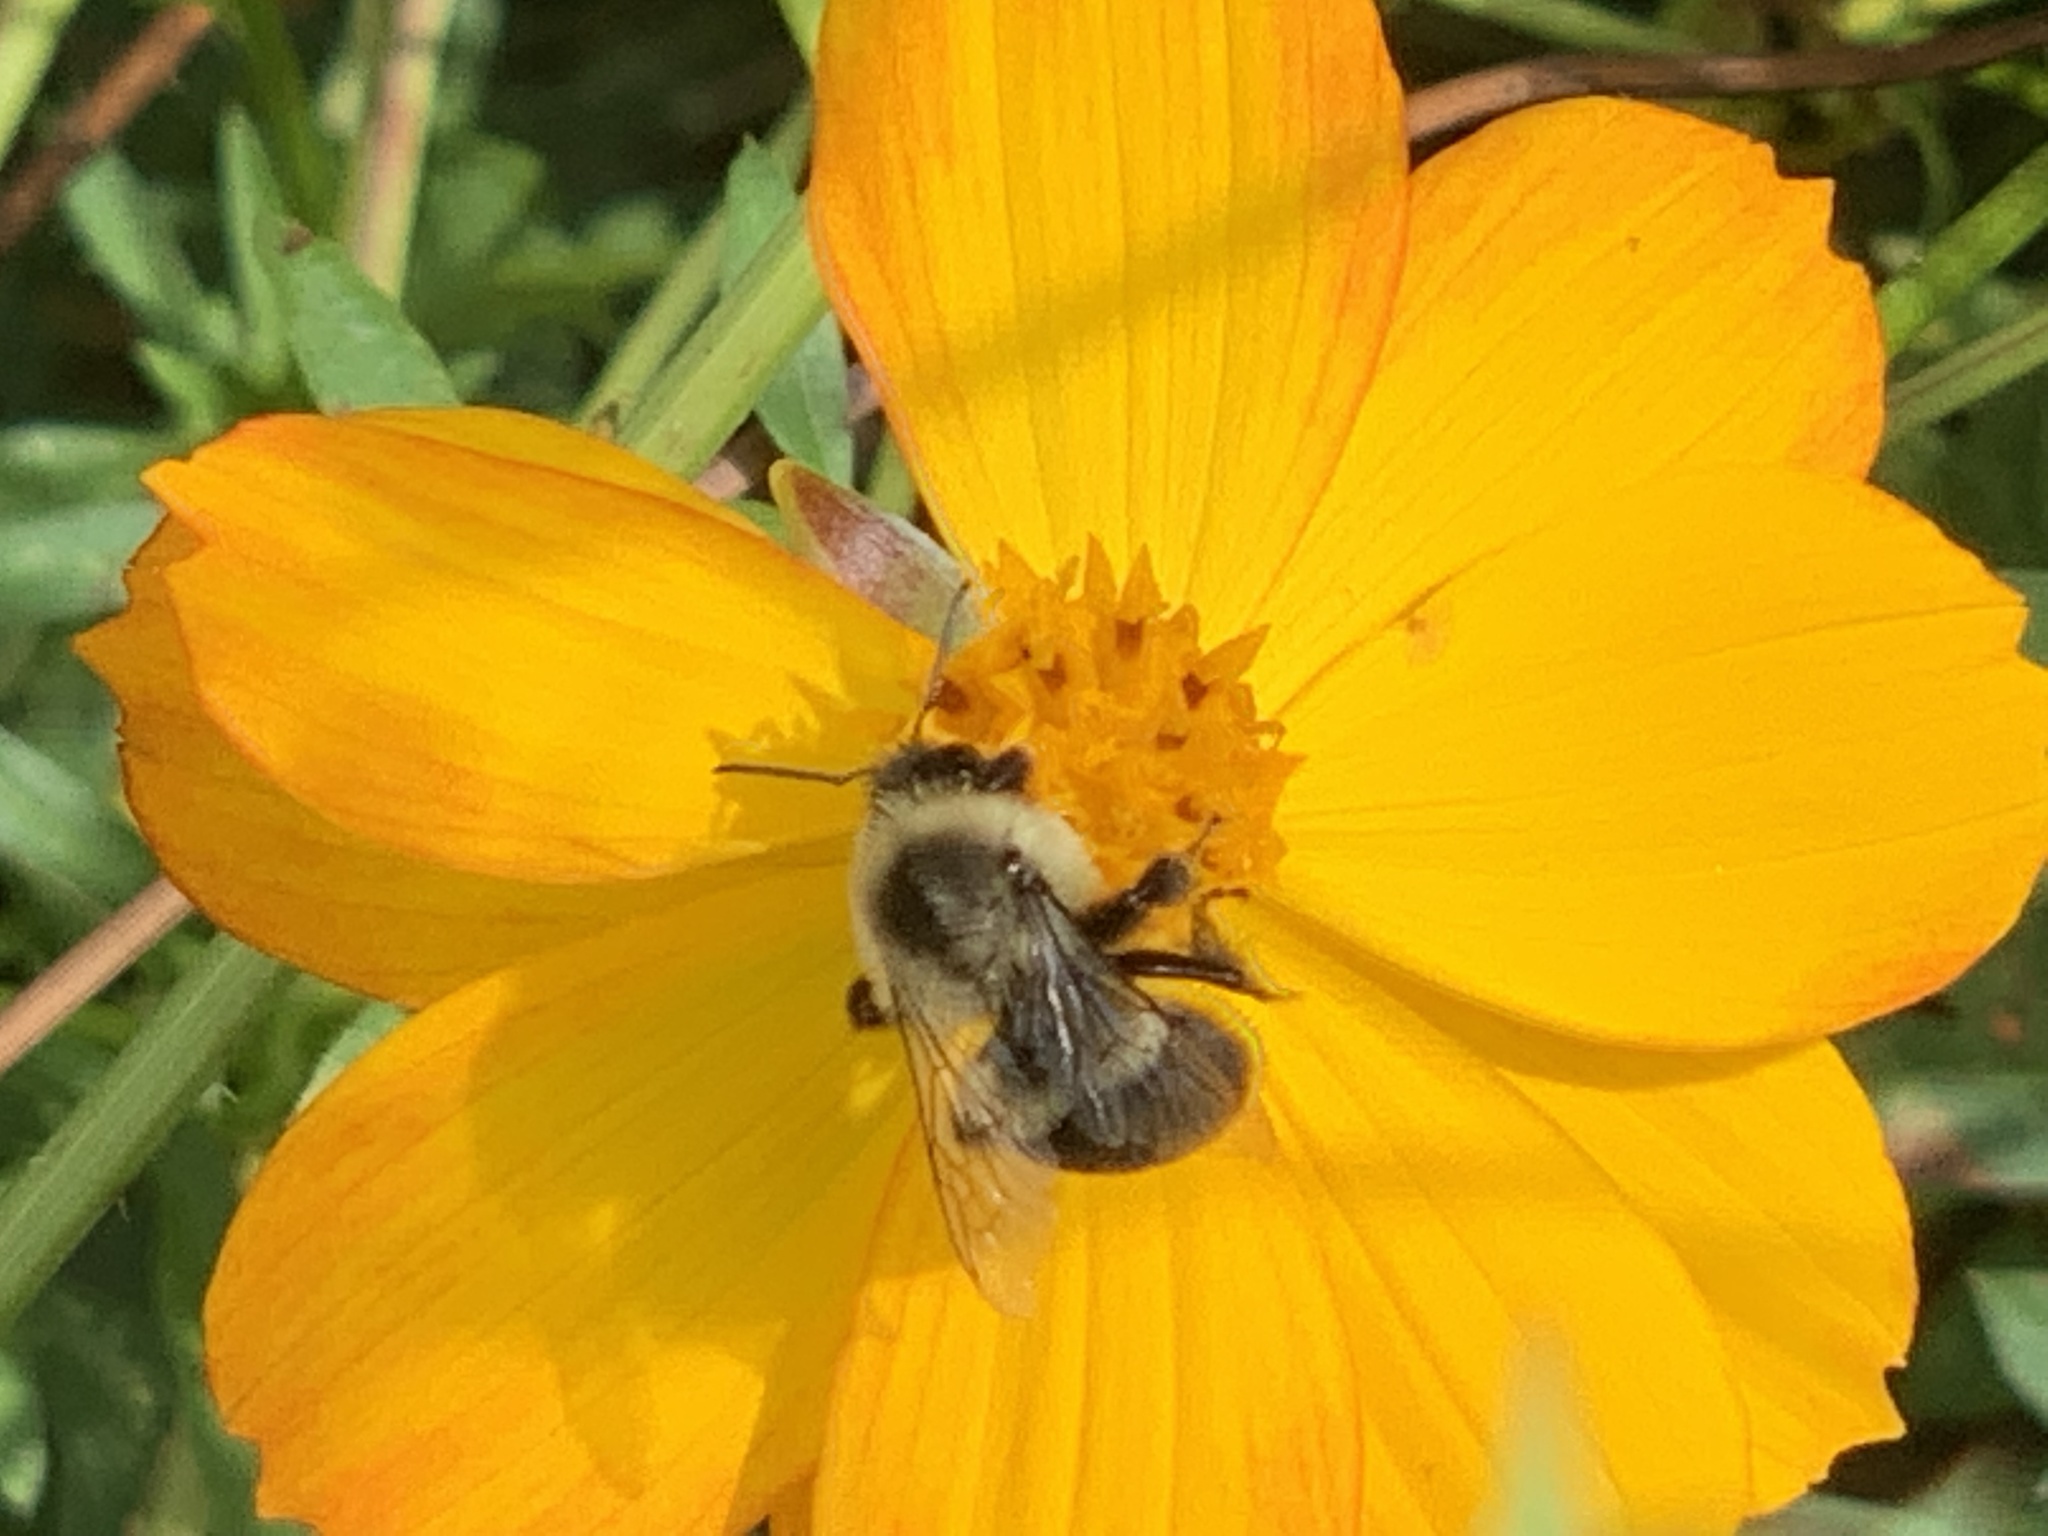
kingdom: Animalia
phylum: Arthropoda
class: Insecta
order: Hymenoptera
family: Apidae
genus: Bombus
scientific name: Bombus impatiens
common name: Common eastern bumble bee
